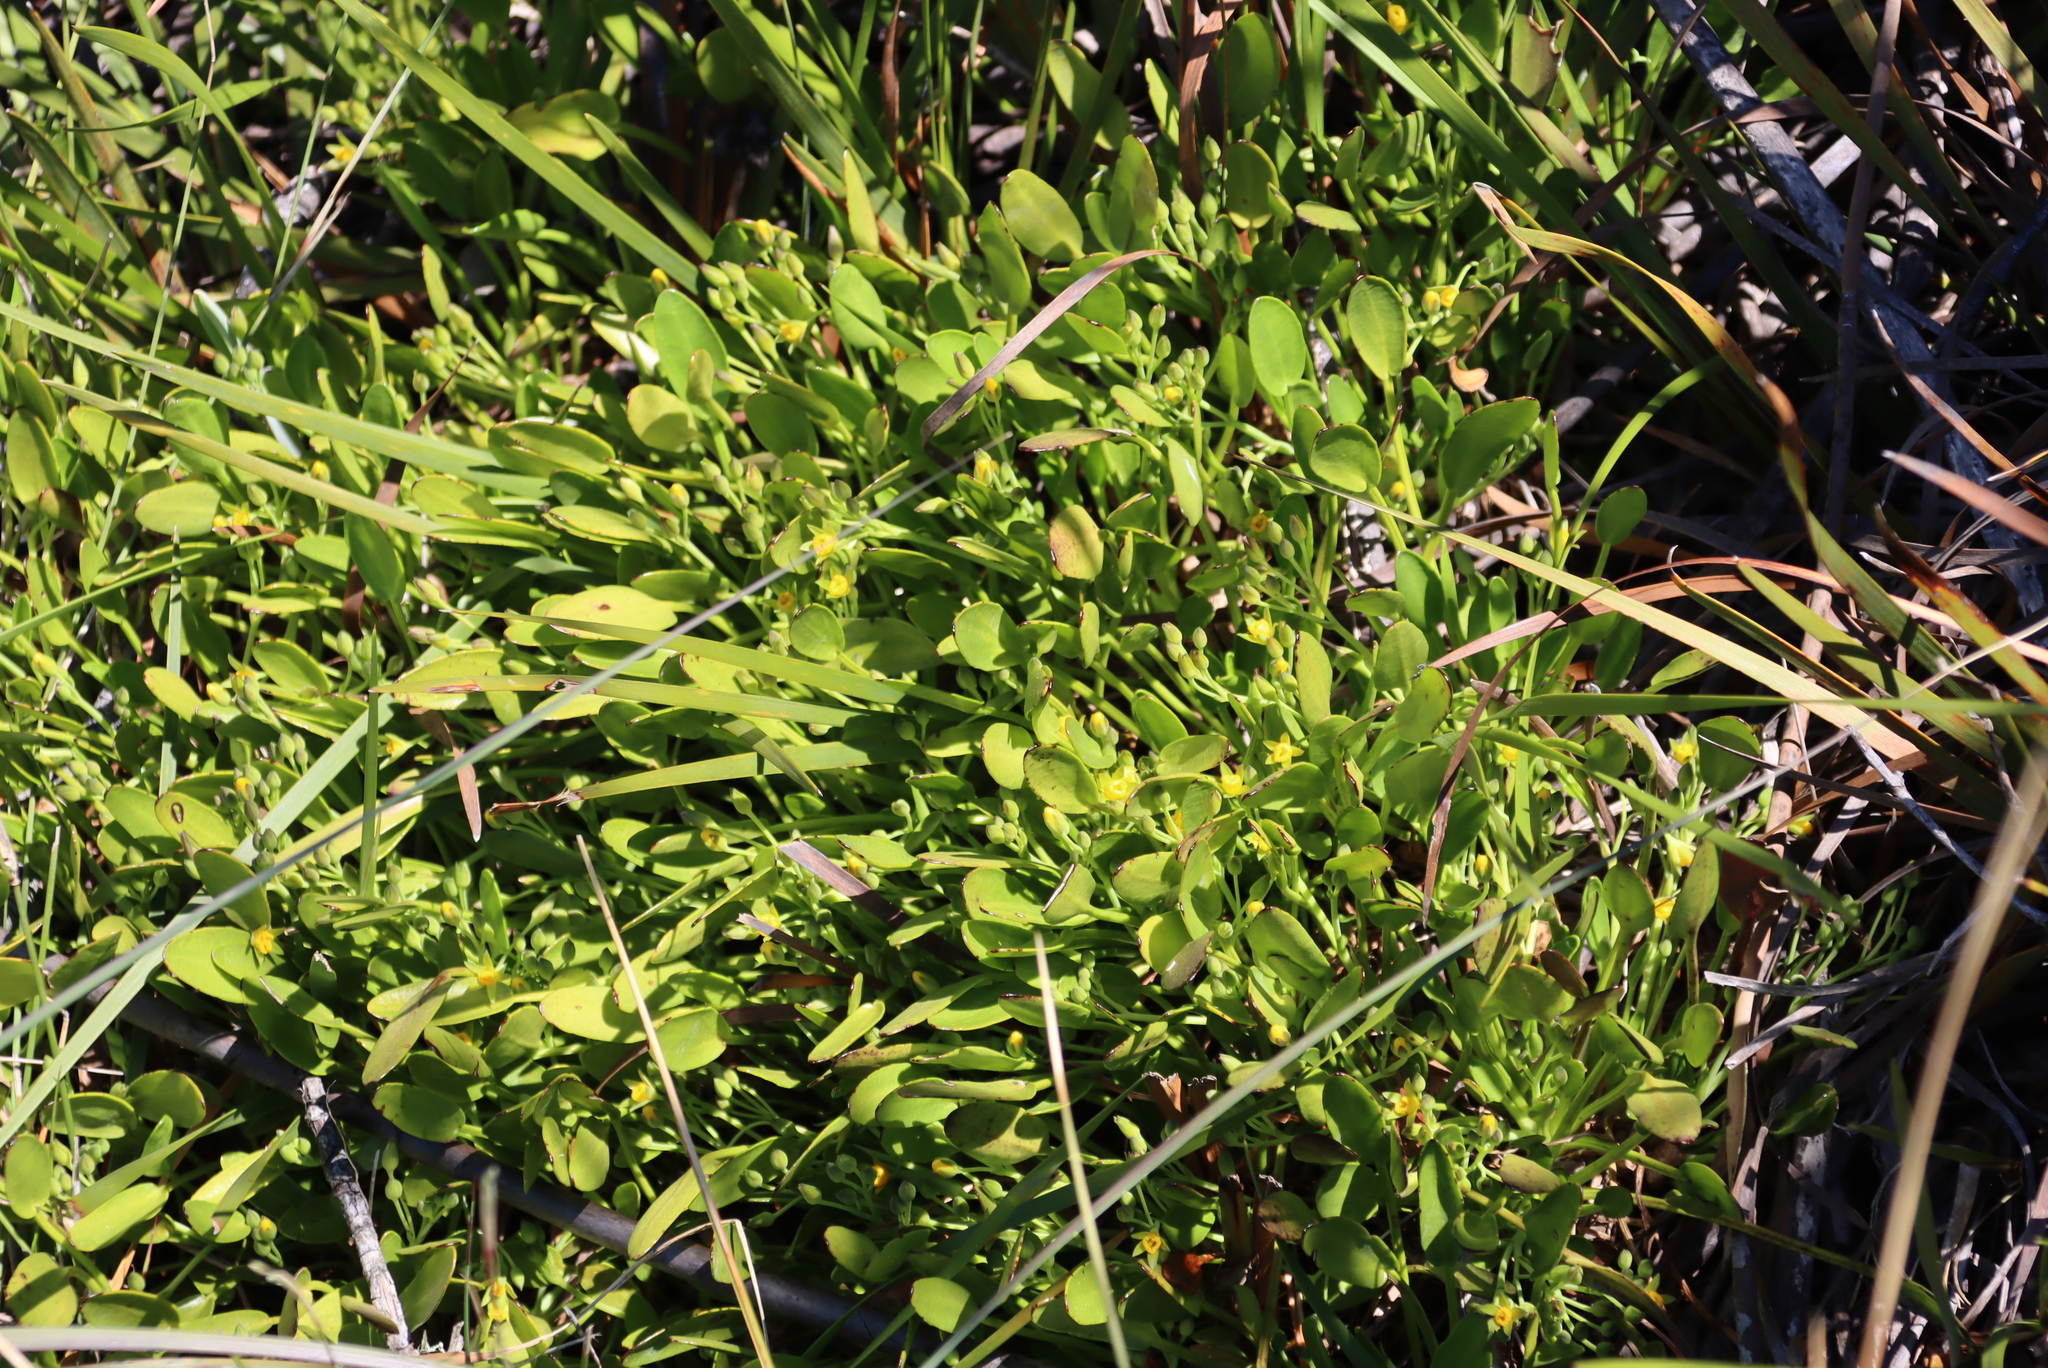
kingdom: Plantae
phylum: Tracheophyta
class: Magnoliopsida
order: Asterales
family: Menyanthaceae
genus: Villarsia
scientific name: Villarsia manningiana
